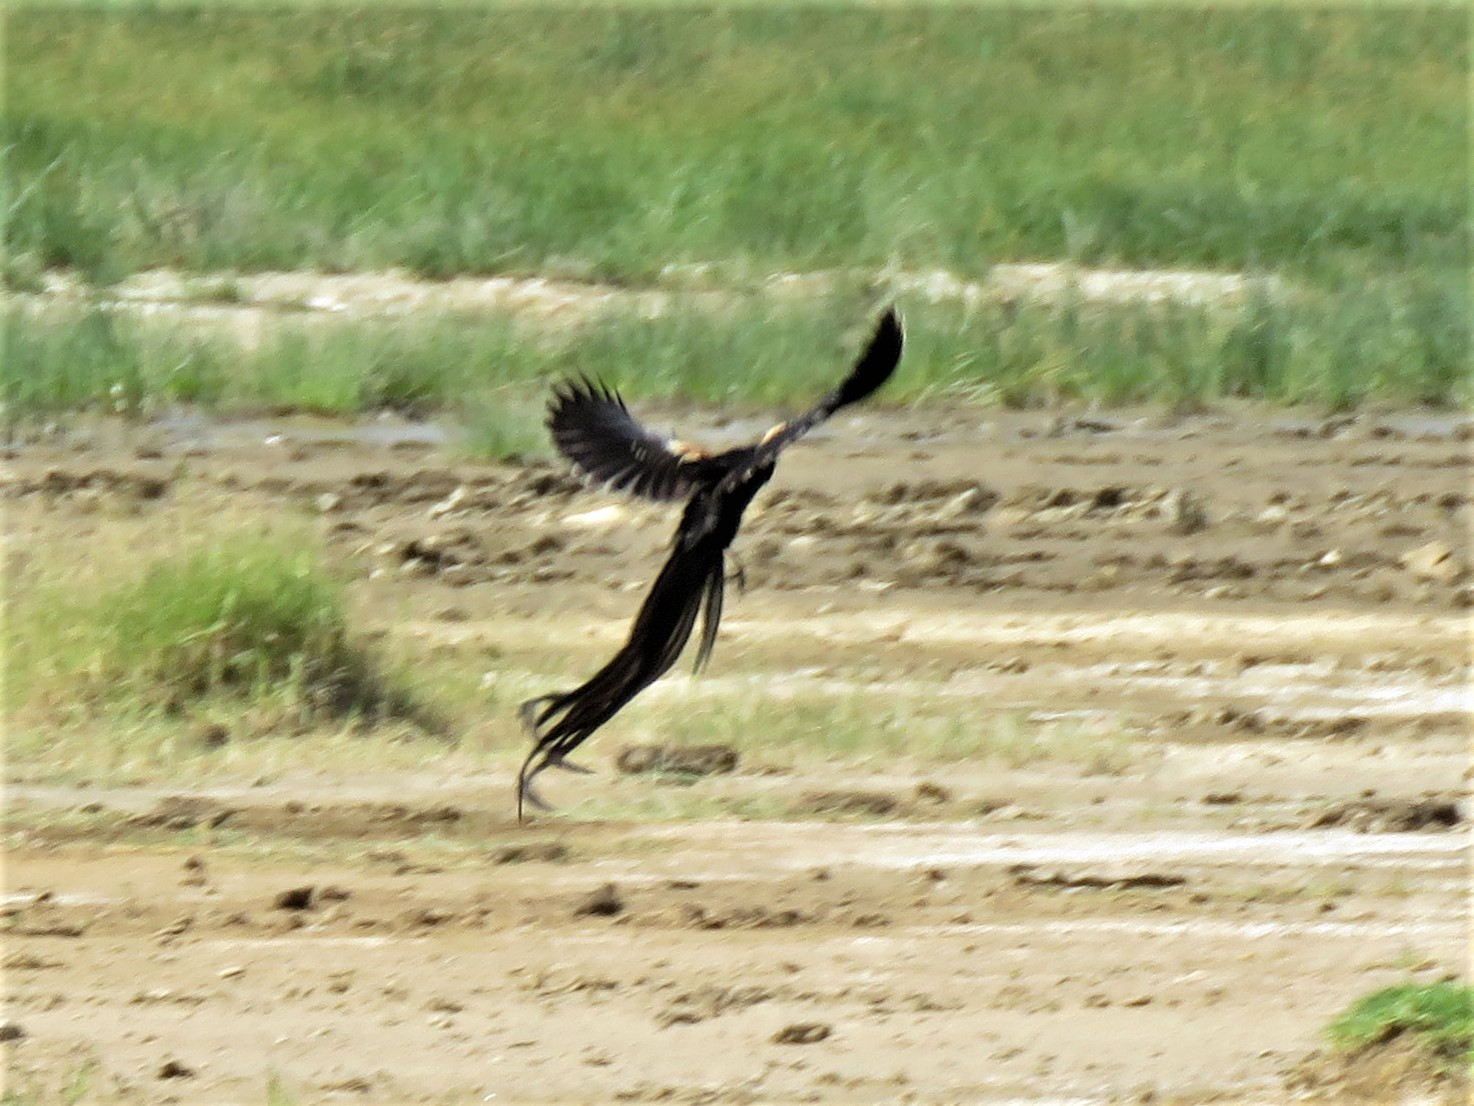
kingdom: Animalia
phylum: Chordata
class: Aves
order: Passeriformes
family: Ploceidae
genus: Euplectes
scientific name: Euplectes progne
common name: Long-tailed widowbird
